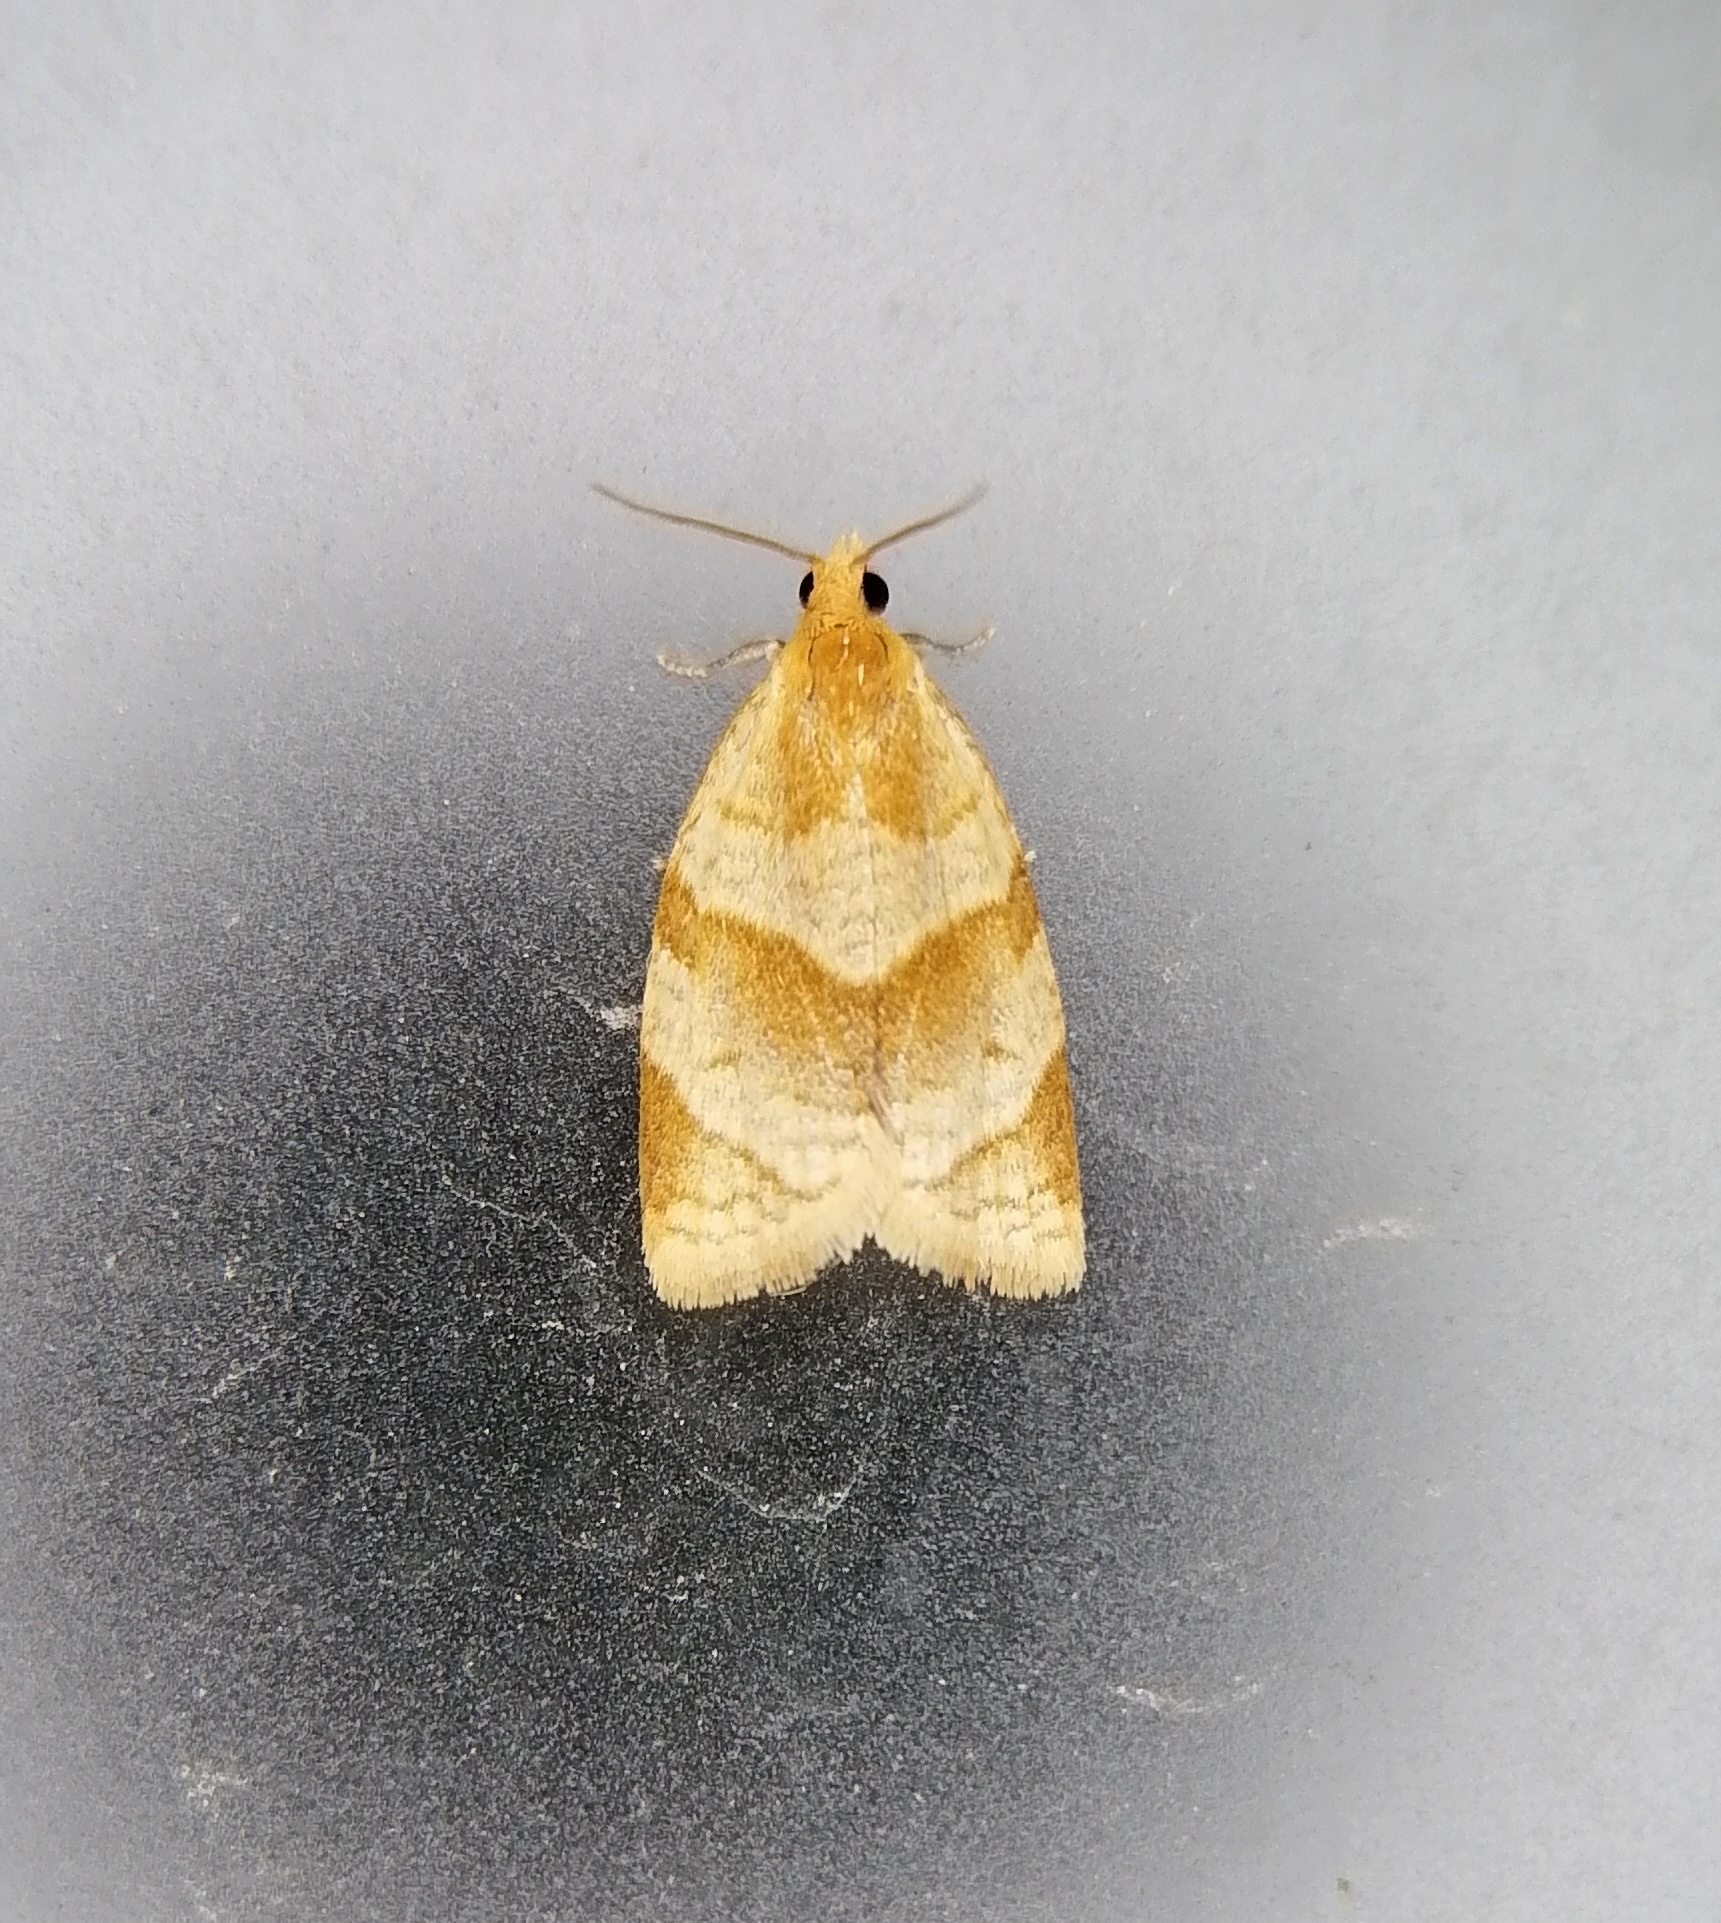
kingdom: Animalia
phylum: Arthropoda
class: Insecta
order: Lepidoptera
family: Tortricidae
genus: Clepsis
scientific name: Clepsis rurinana
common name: Pale twist
